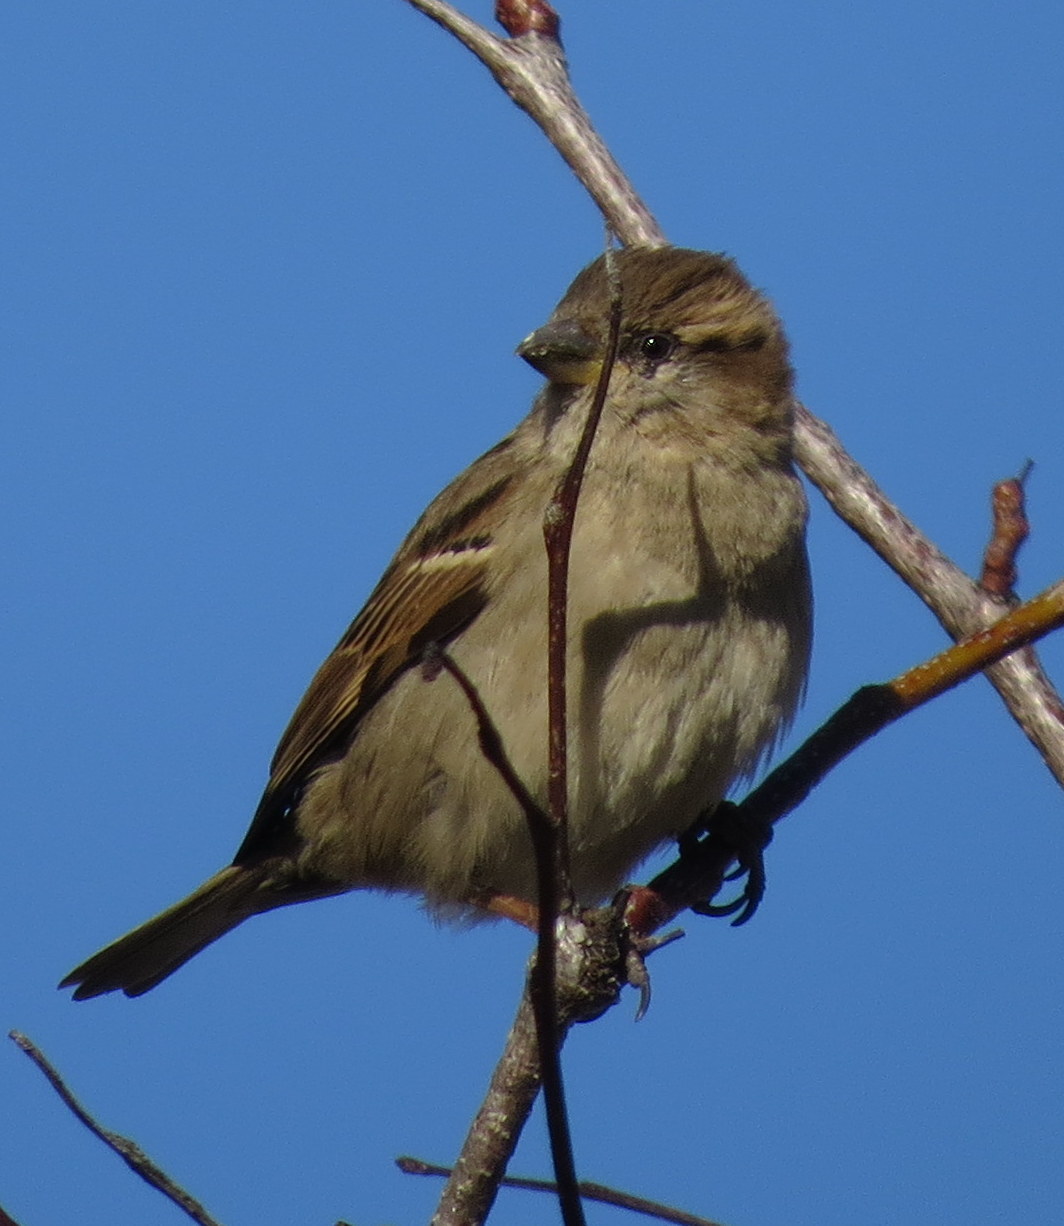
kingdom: Animalia
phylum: Chordata
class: Aves
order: Passeriformes
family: Passeridae
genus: Passer
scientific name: Passer domesticus
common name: House sparrow
